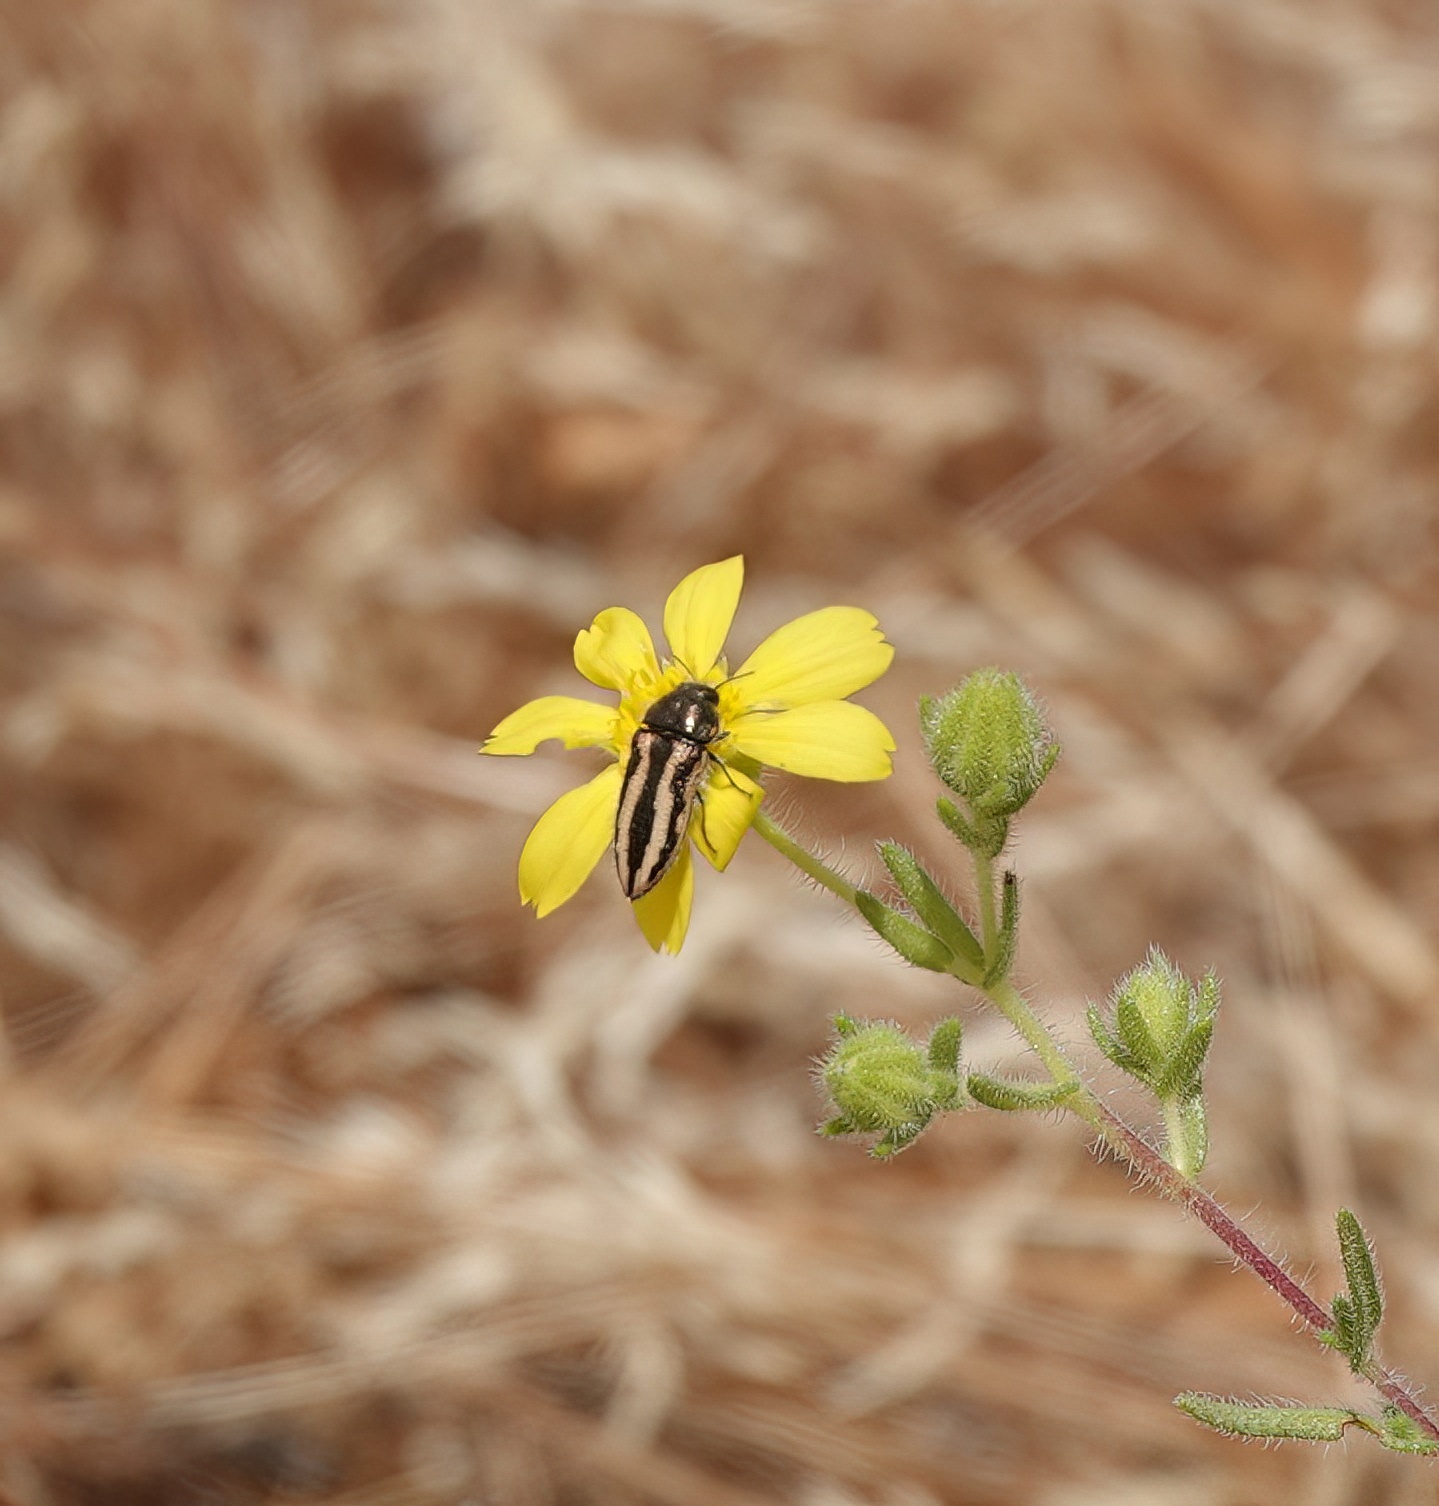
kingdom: Animalia
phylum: Arthropoda
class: Insecta
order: Coleoptera
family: Buprestidae
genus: Acmaeodera
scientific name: Acmaeodera nigrovittata
